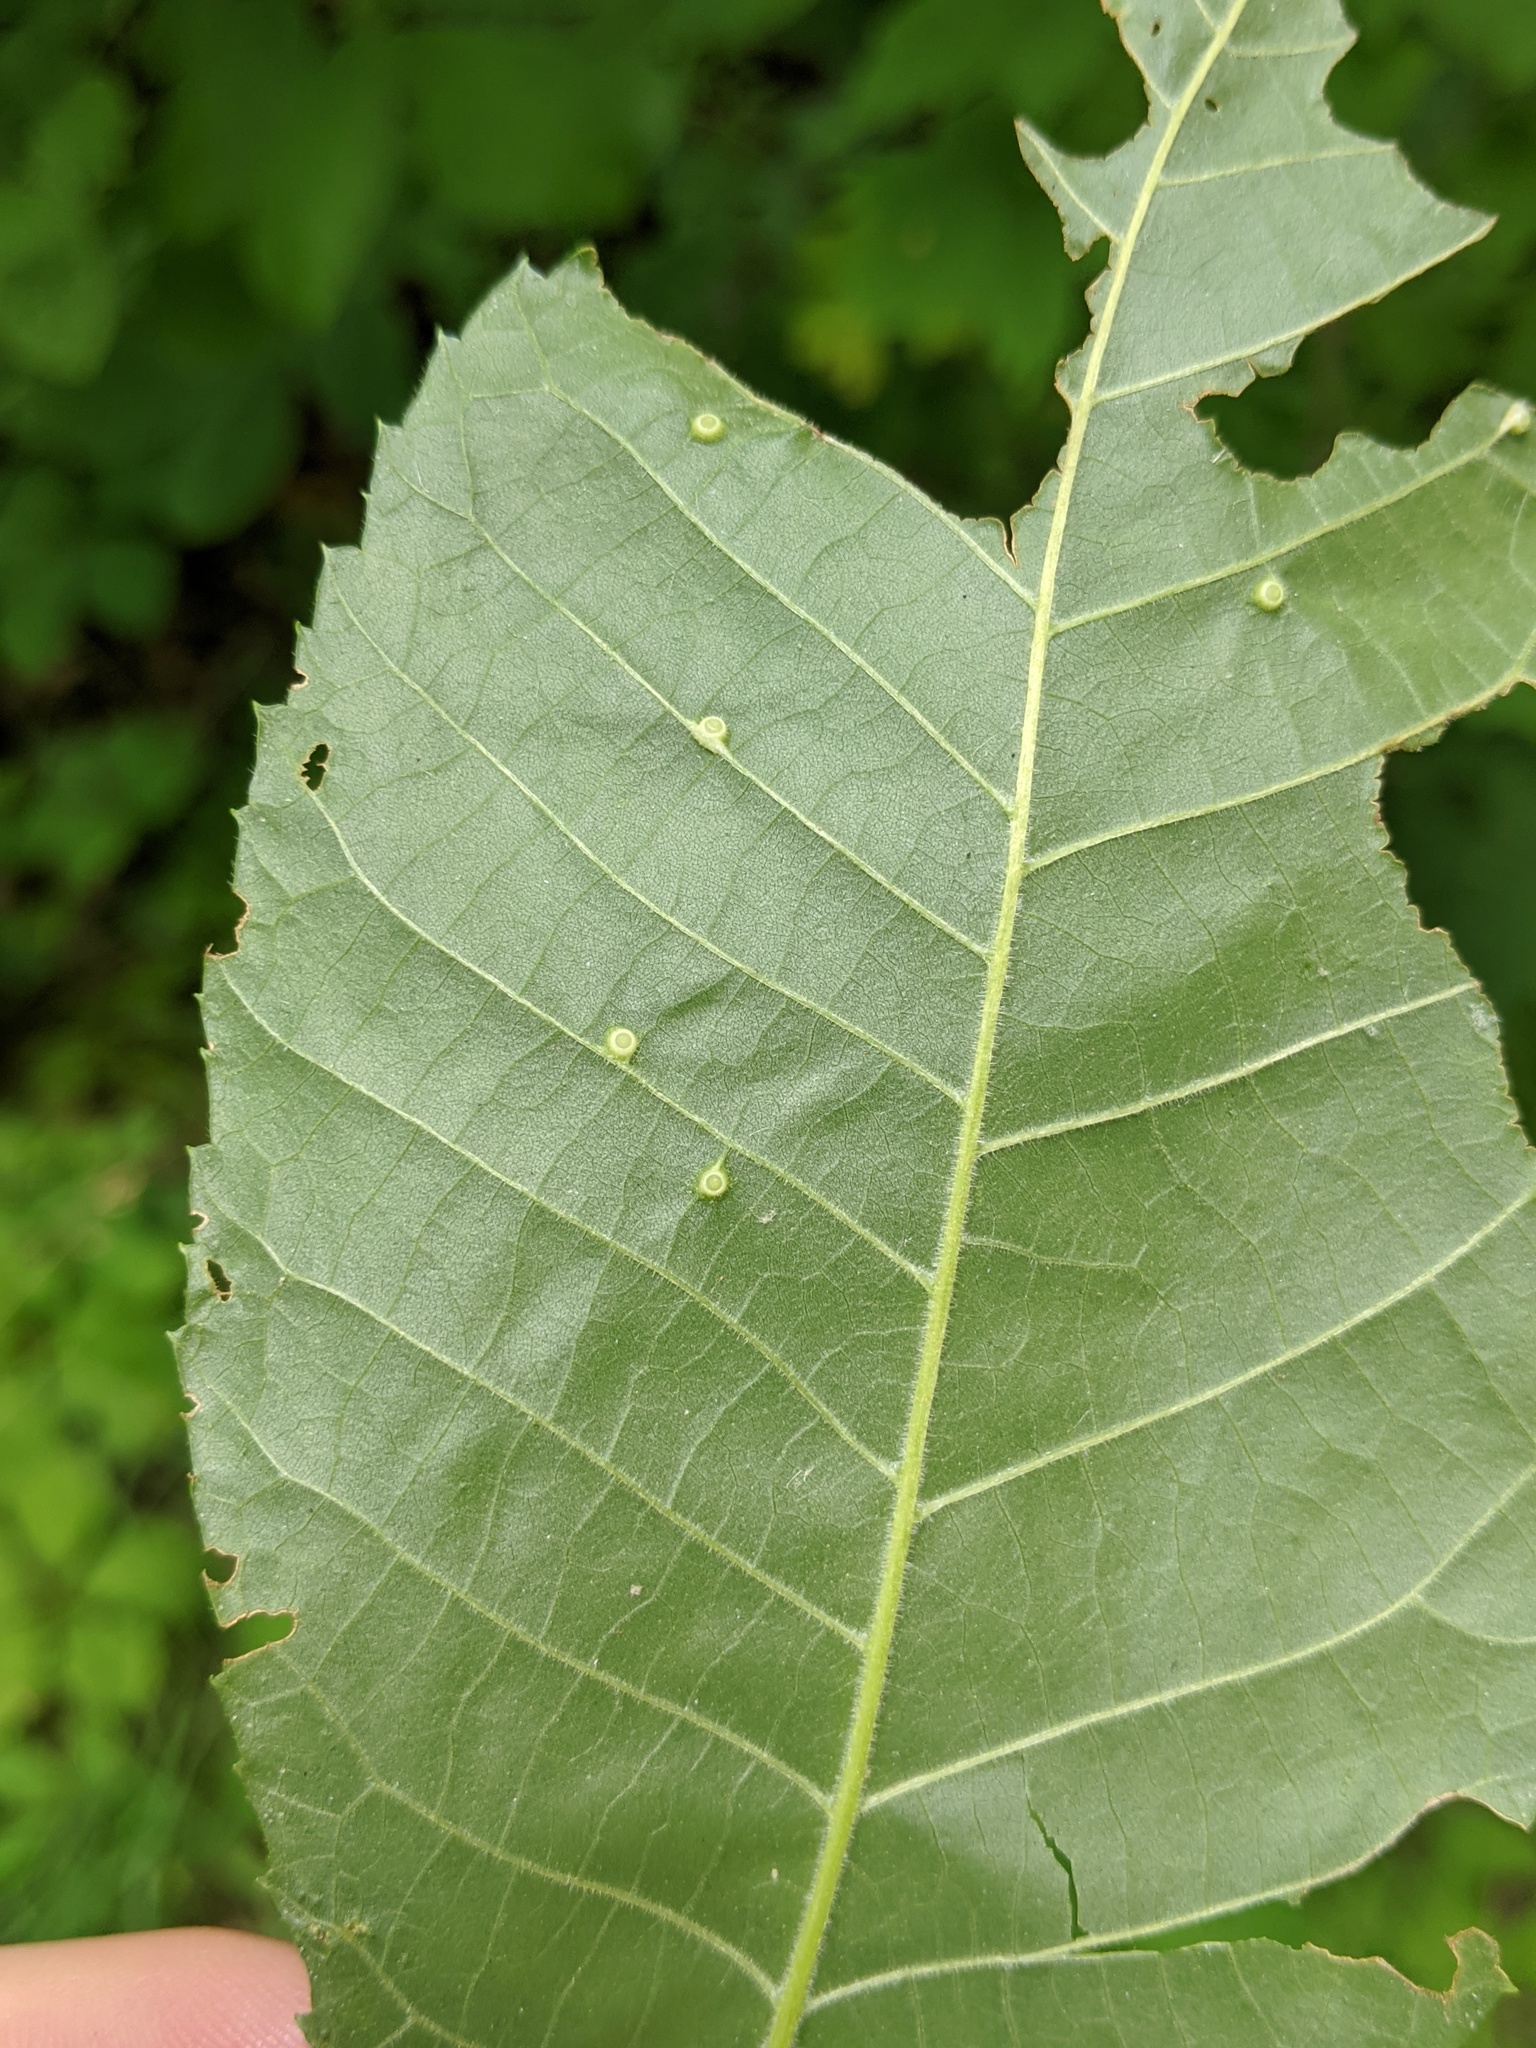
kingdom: Animalia
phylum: Arthropoda
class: Insecta
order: Diptera
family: Cecidomyiidae
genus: Caryomyia
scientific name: Caryomyia tubicola
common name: Hickory bullet gall midge
